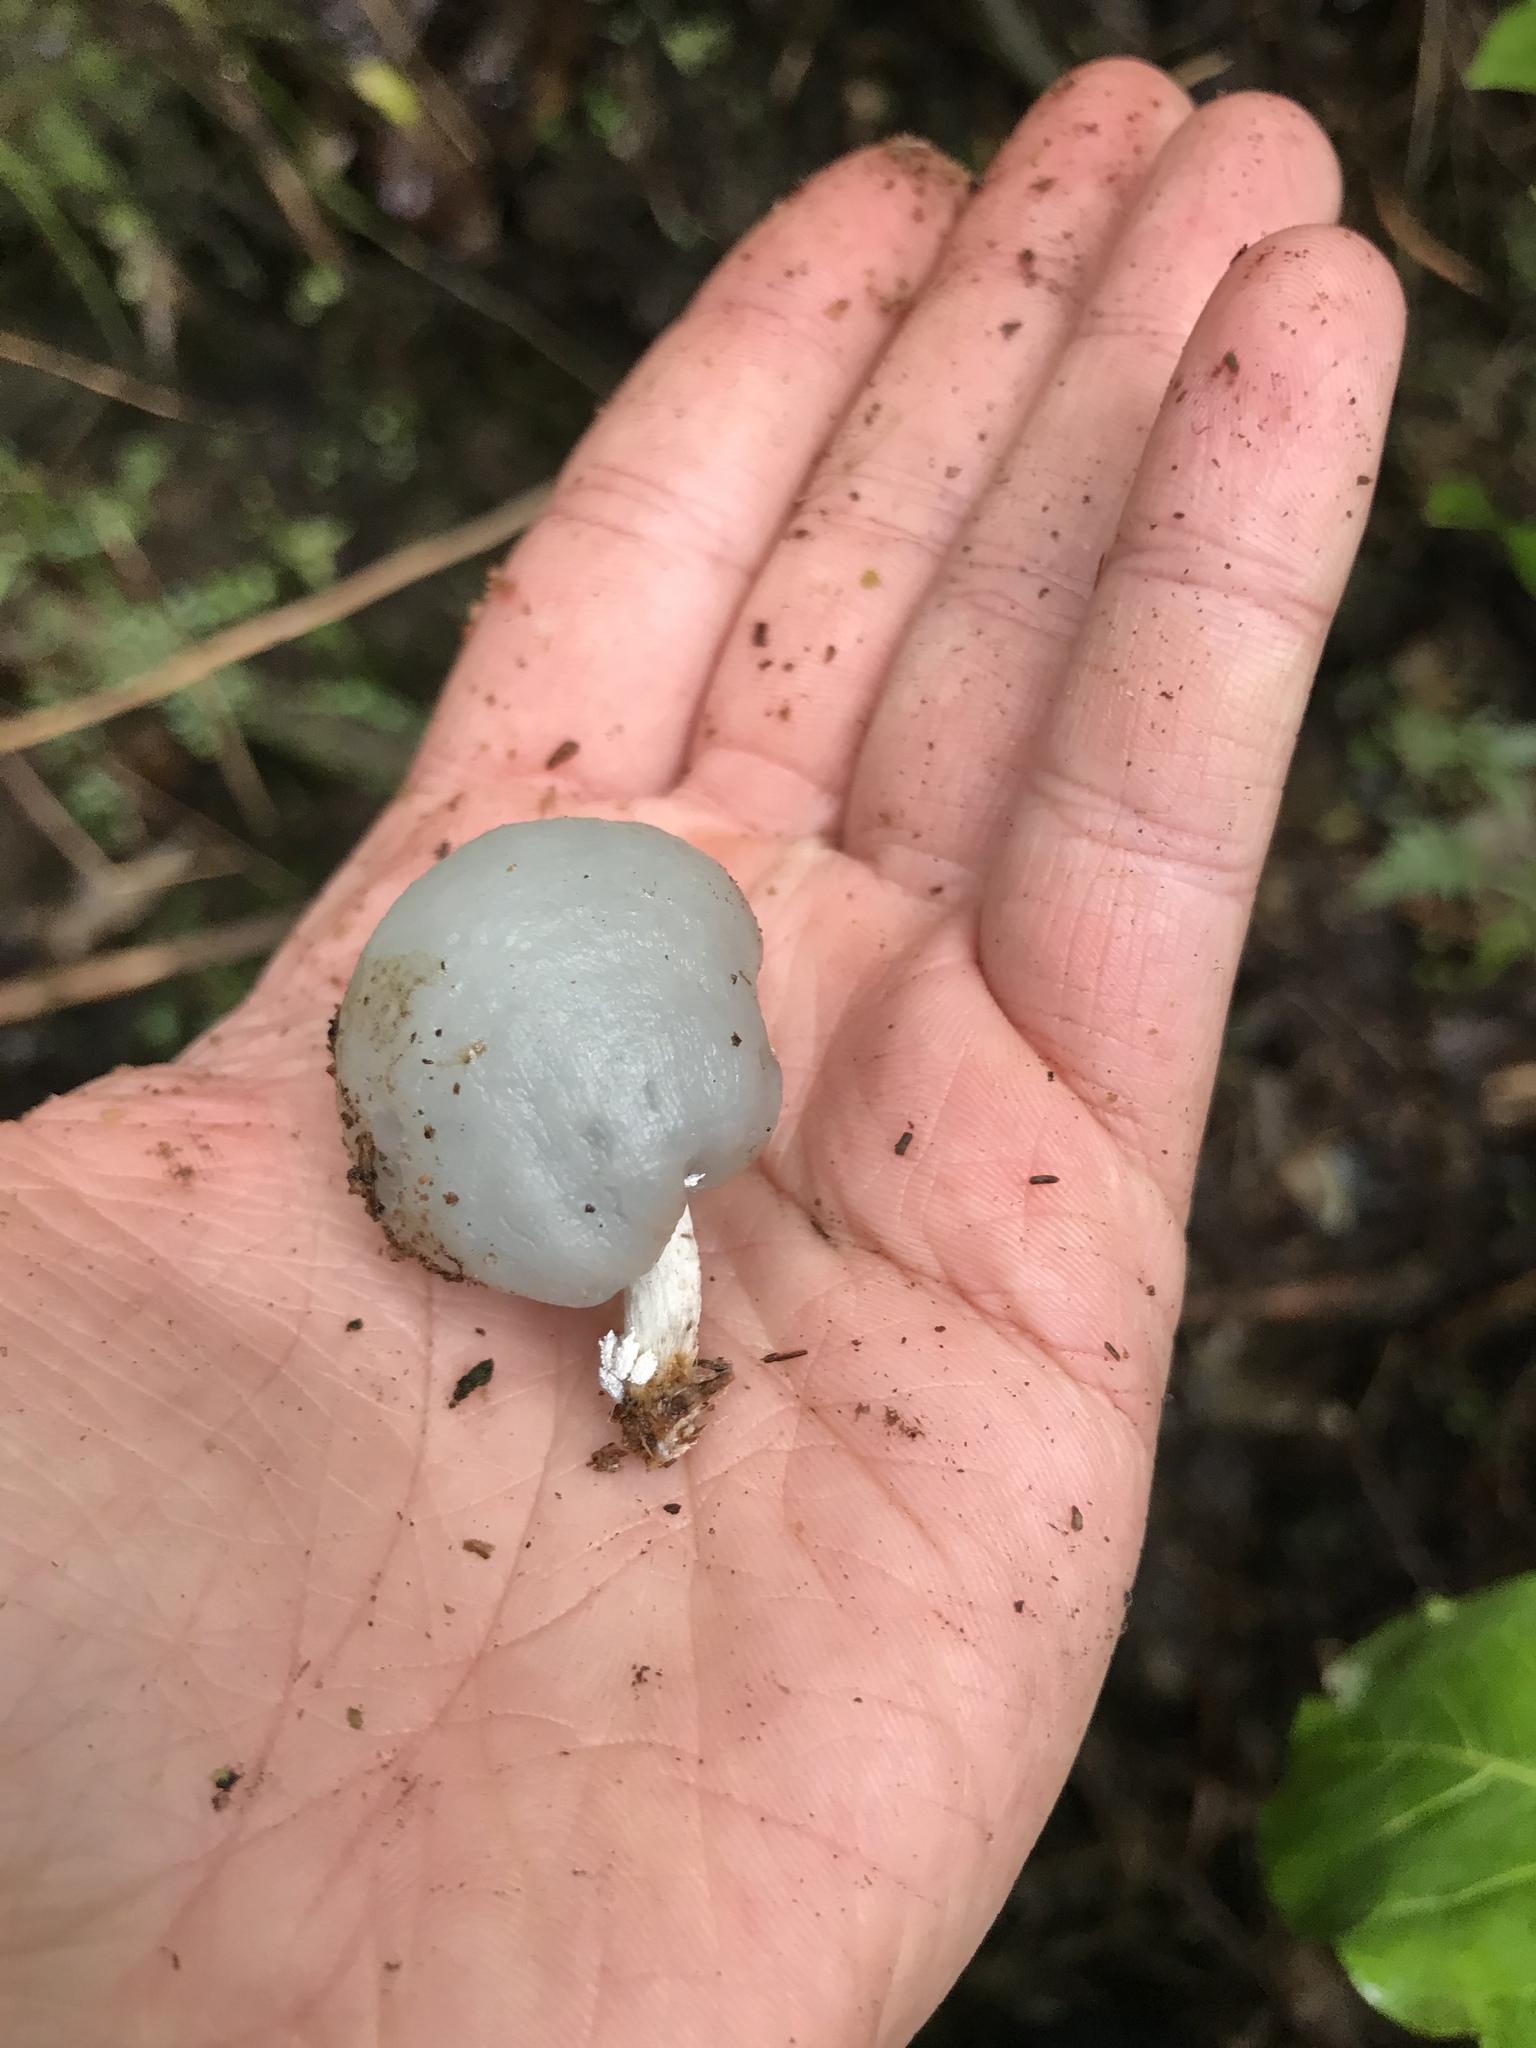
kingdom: Fungi
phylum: Basidiomycota
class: Agaricomycetes
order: Agaricales
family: Hymenogastraceae
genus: Psilocybe
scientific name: Psilocybe weraroa
